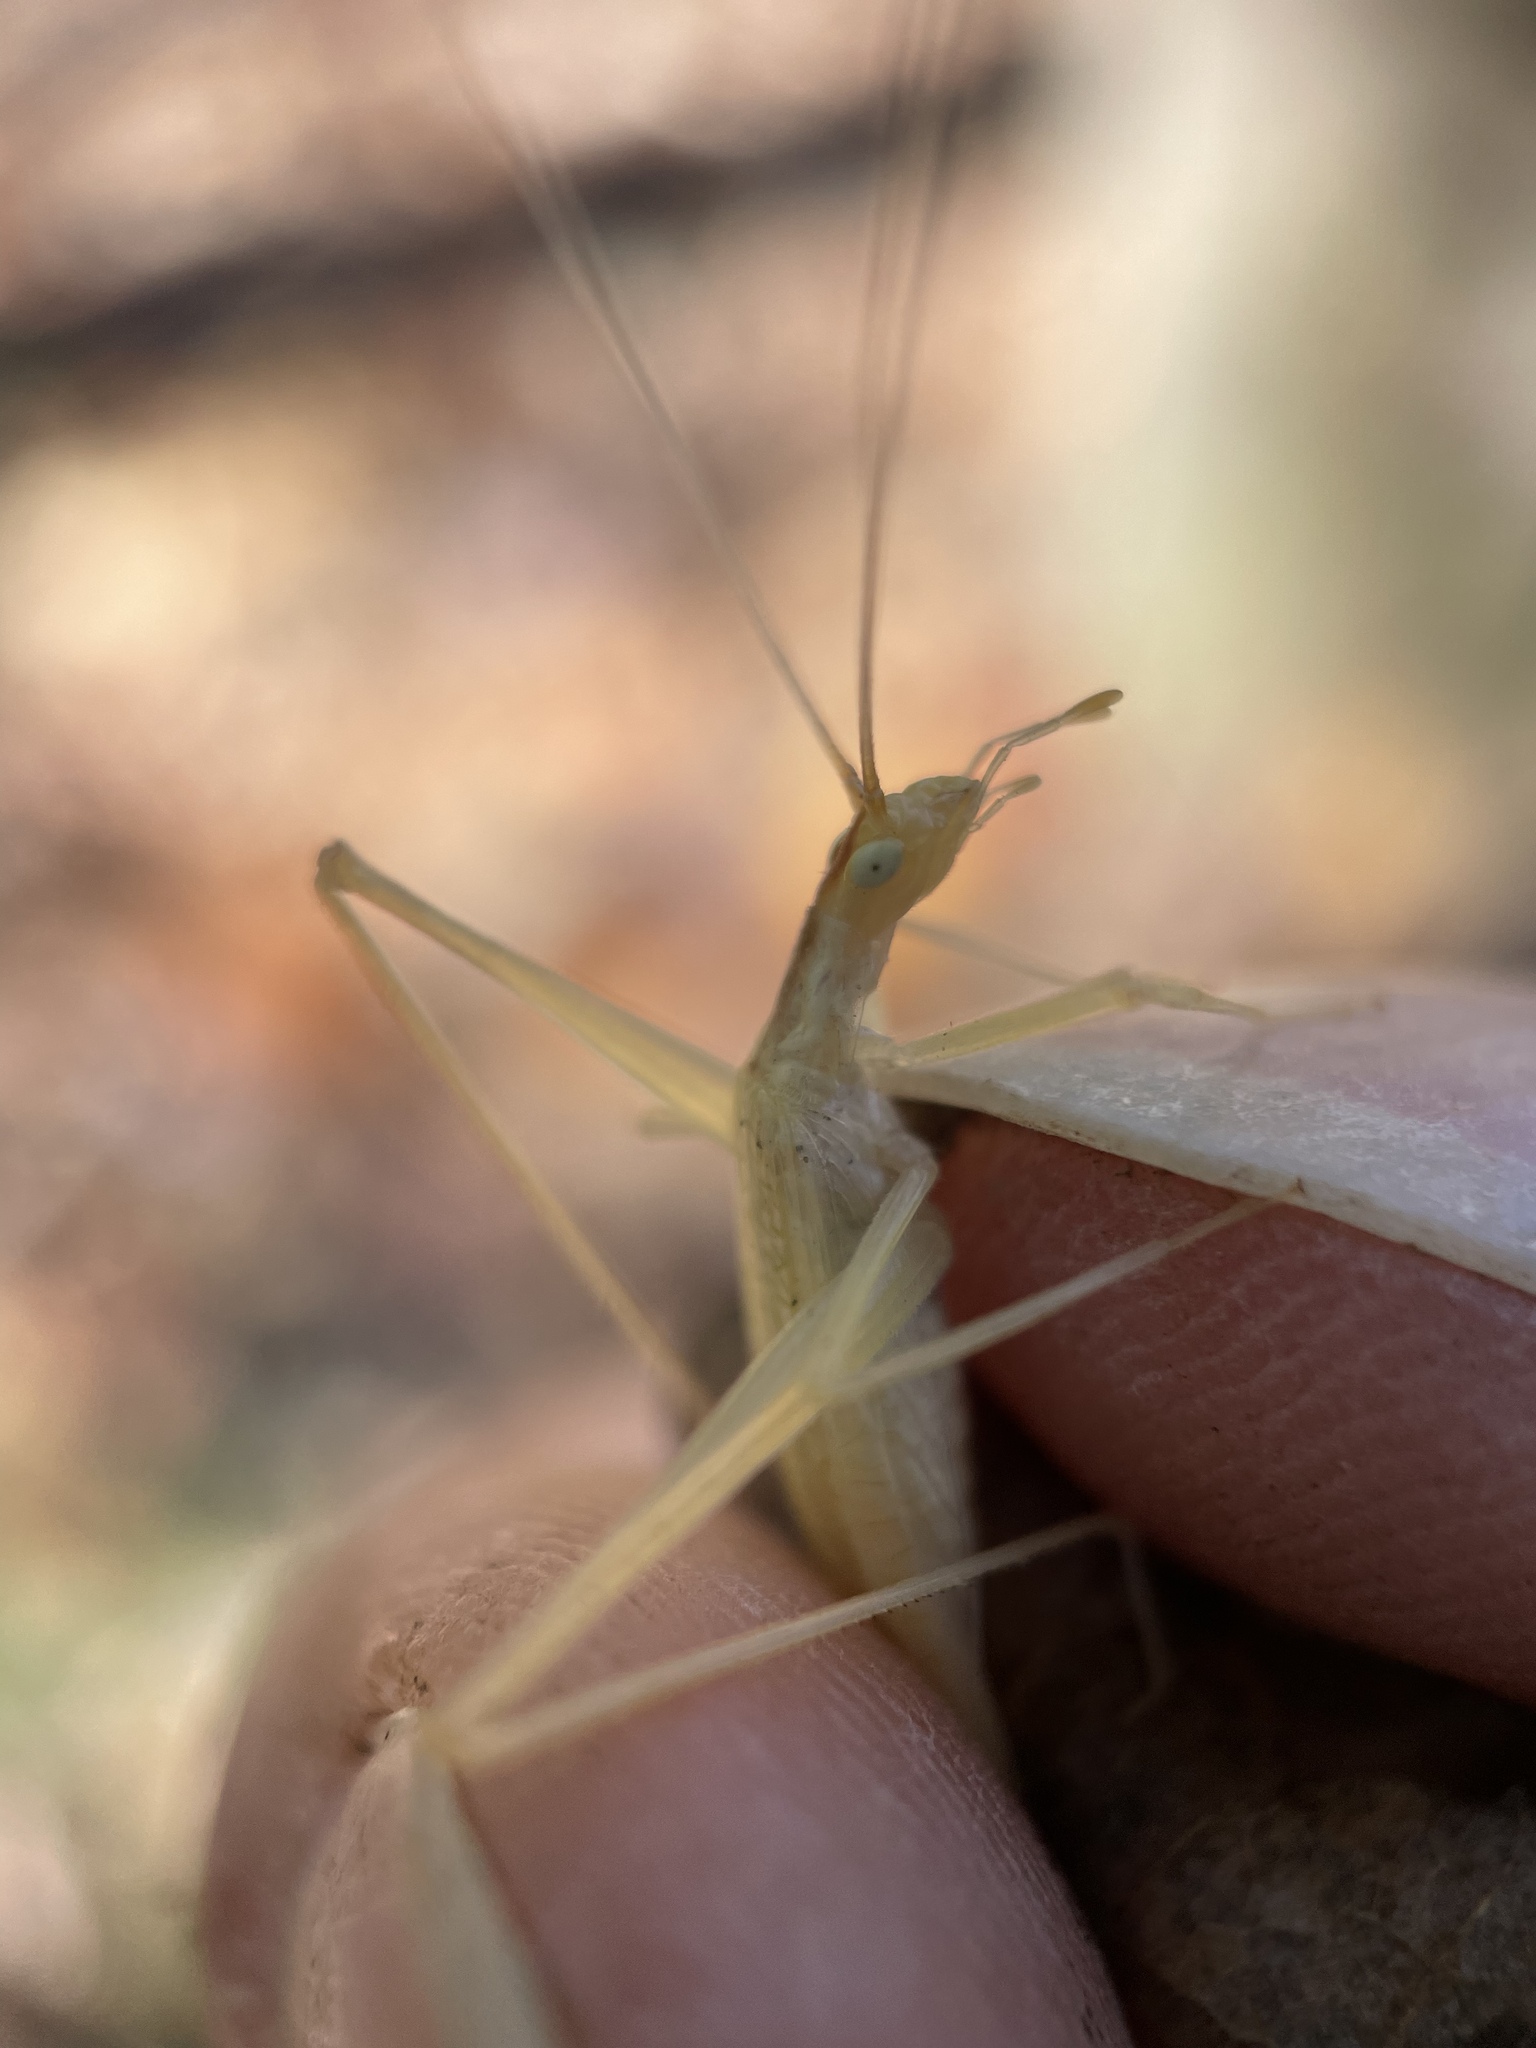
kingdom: Animalia
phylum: Arthropoda
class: Insecta
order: Orthoptera
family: Gryllidae
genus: Oecanthus
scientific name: Oecanthus niveus
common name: Narrow-winged tree cricket
